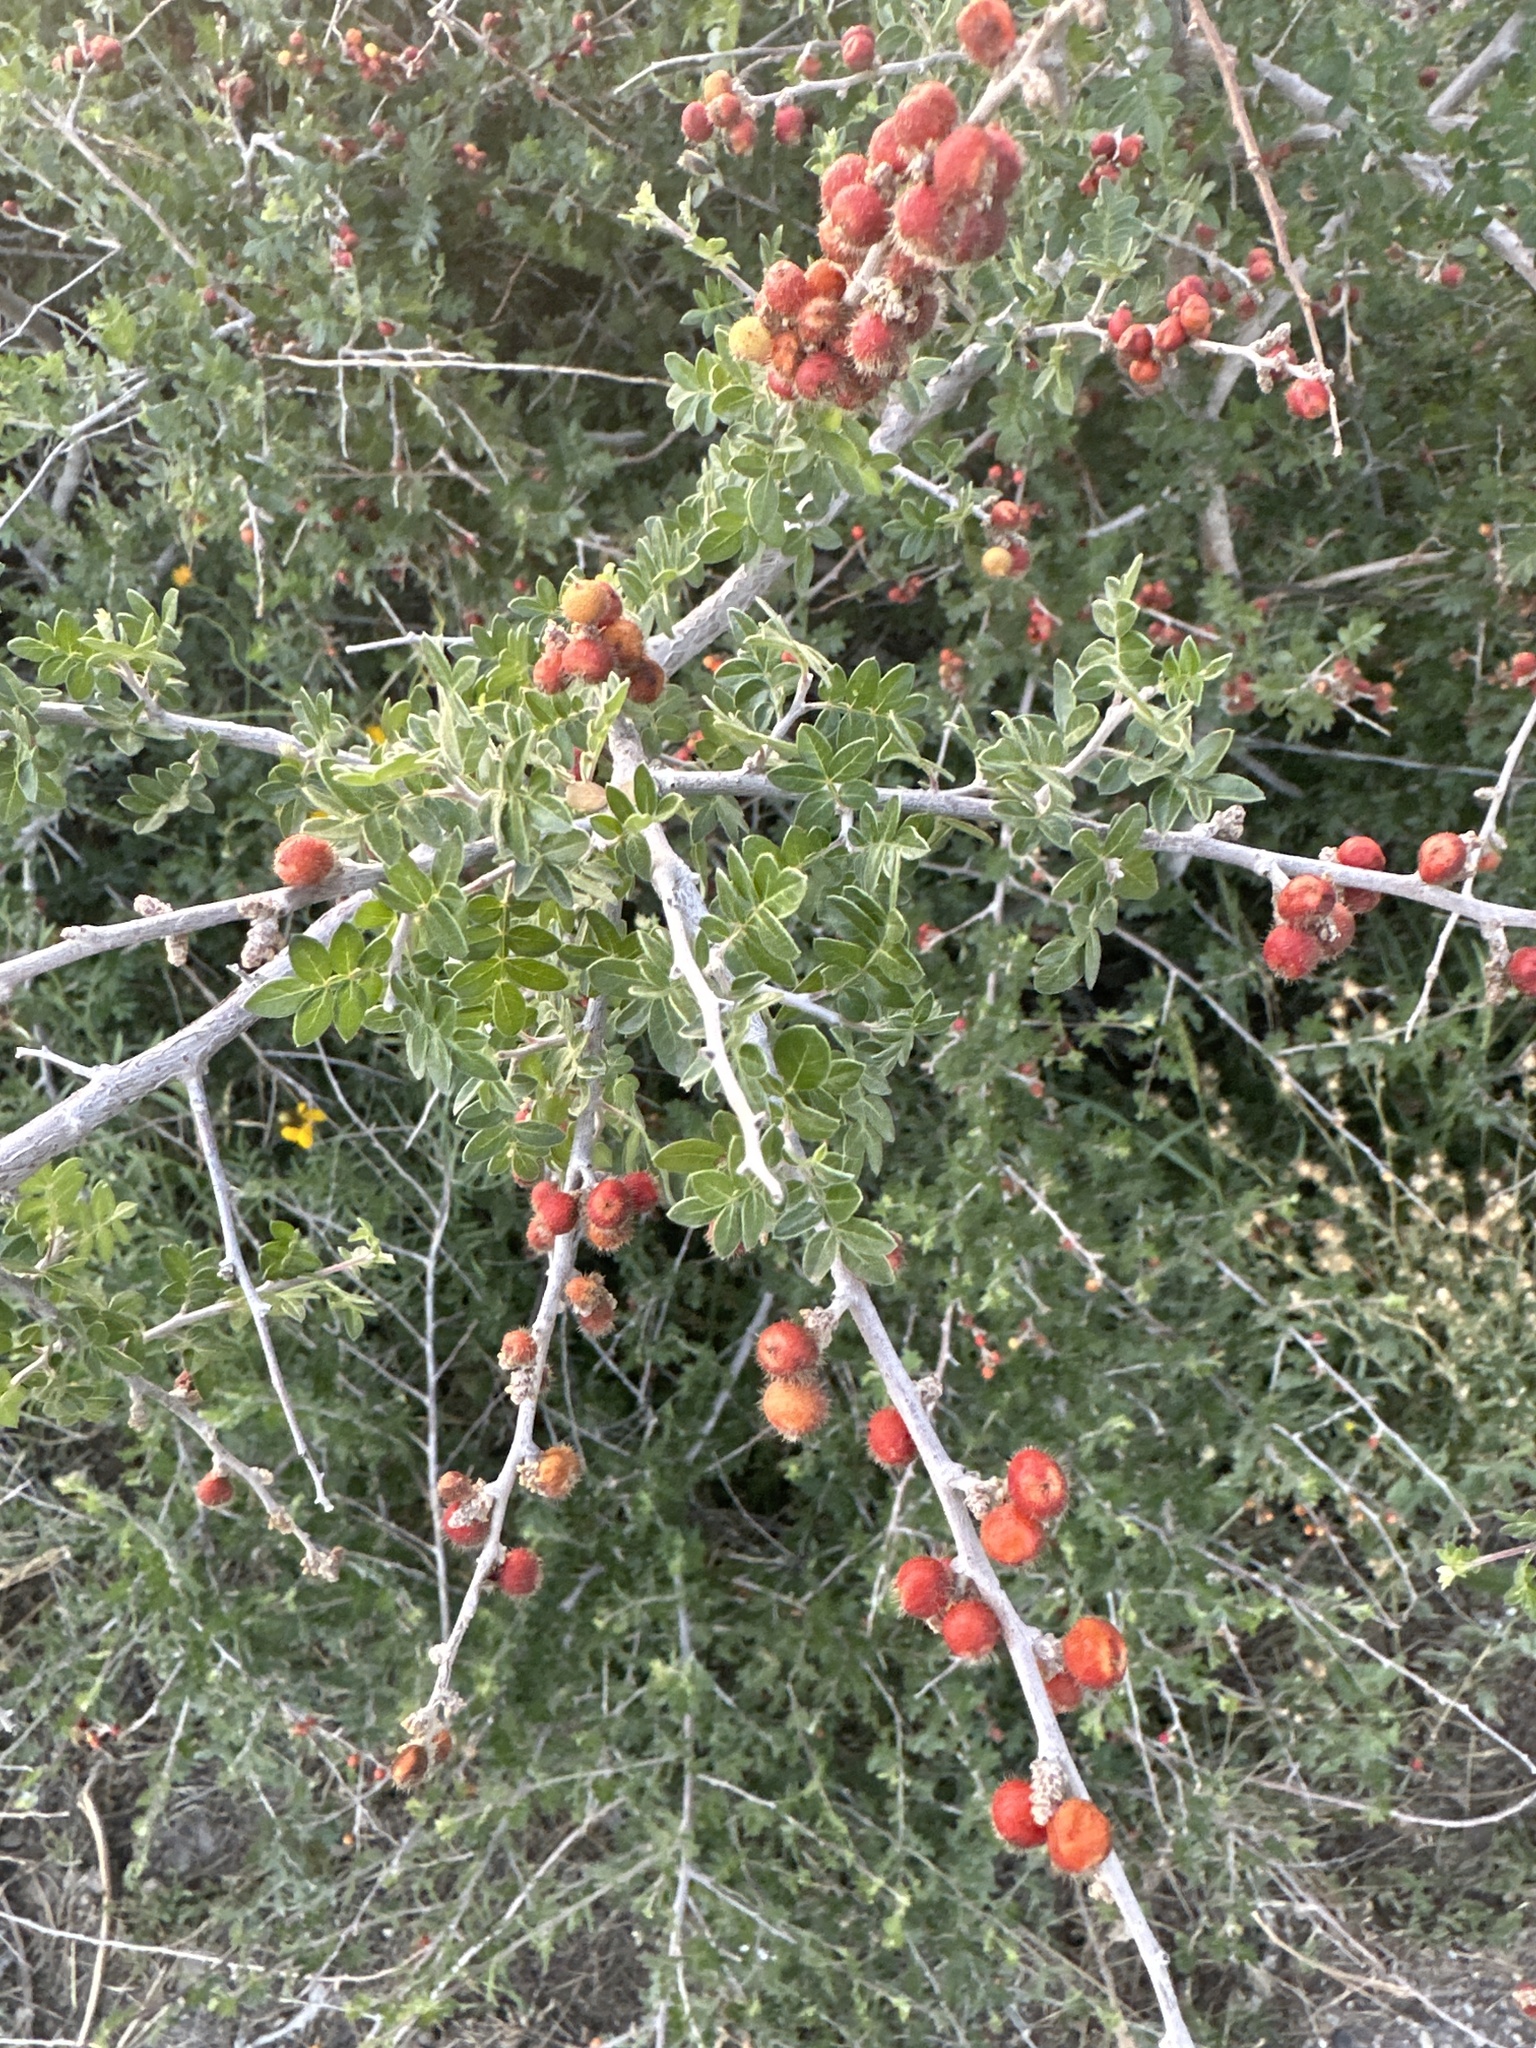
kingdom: Plantae
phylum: Tracheophyta
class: Magnoliopsida
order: Sapindales
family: Anacardiaceae
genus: Rhus
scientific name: Rhus microphylla
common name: Desert sumac
